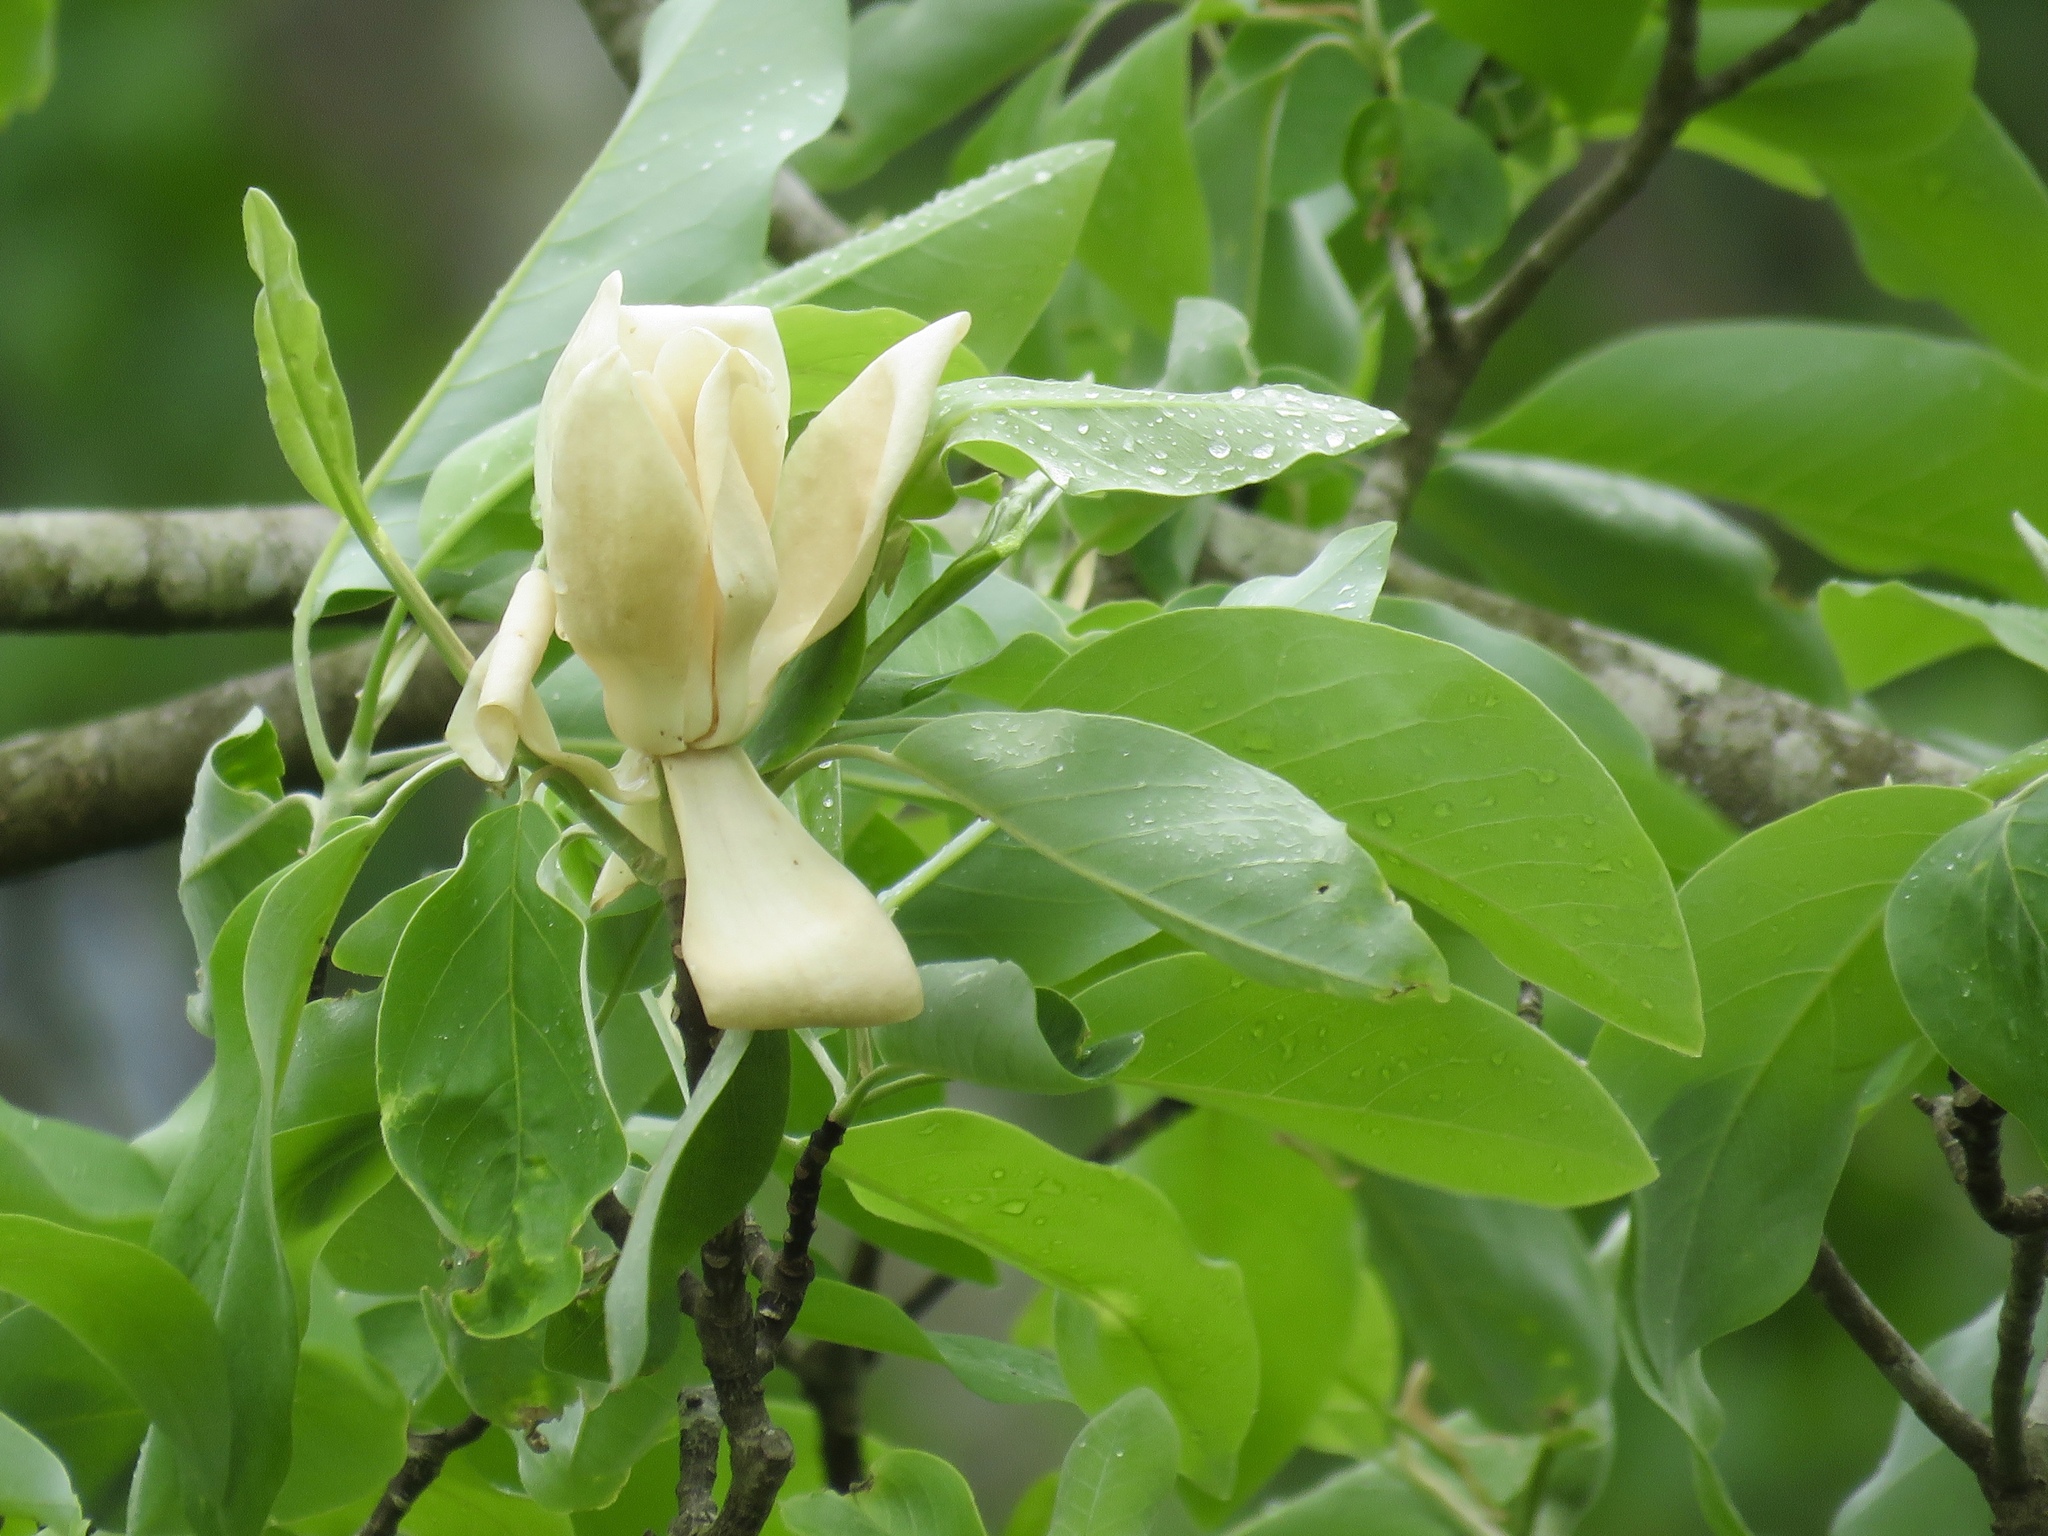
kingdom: Plantae
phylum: Tracheophyta
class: Magnoliopsida
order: Magnoliales
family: Magnoliaceae
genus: Magnolia
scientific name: Magnolia virginiana
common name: Swamp bay
